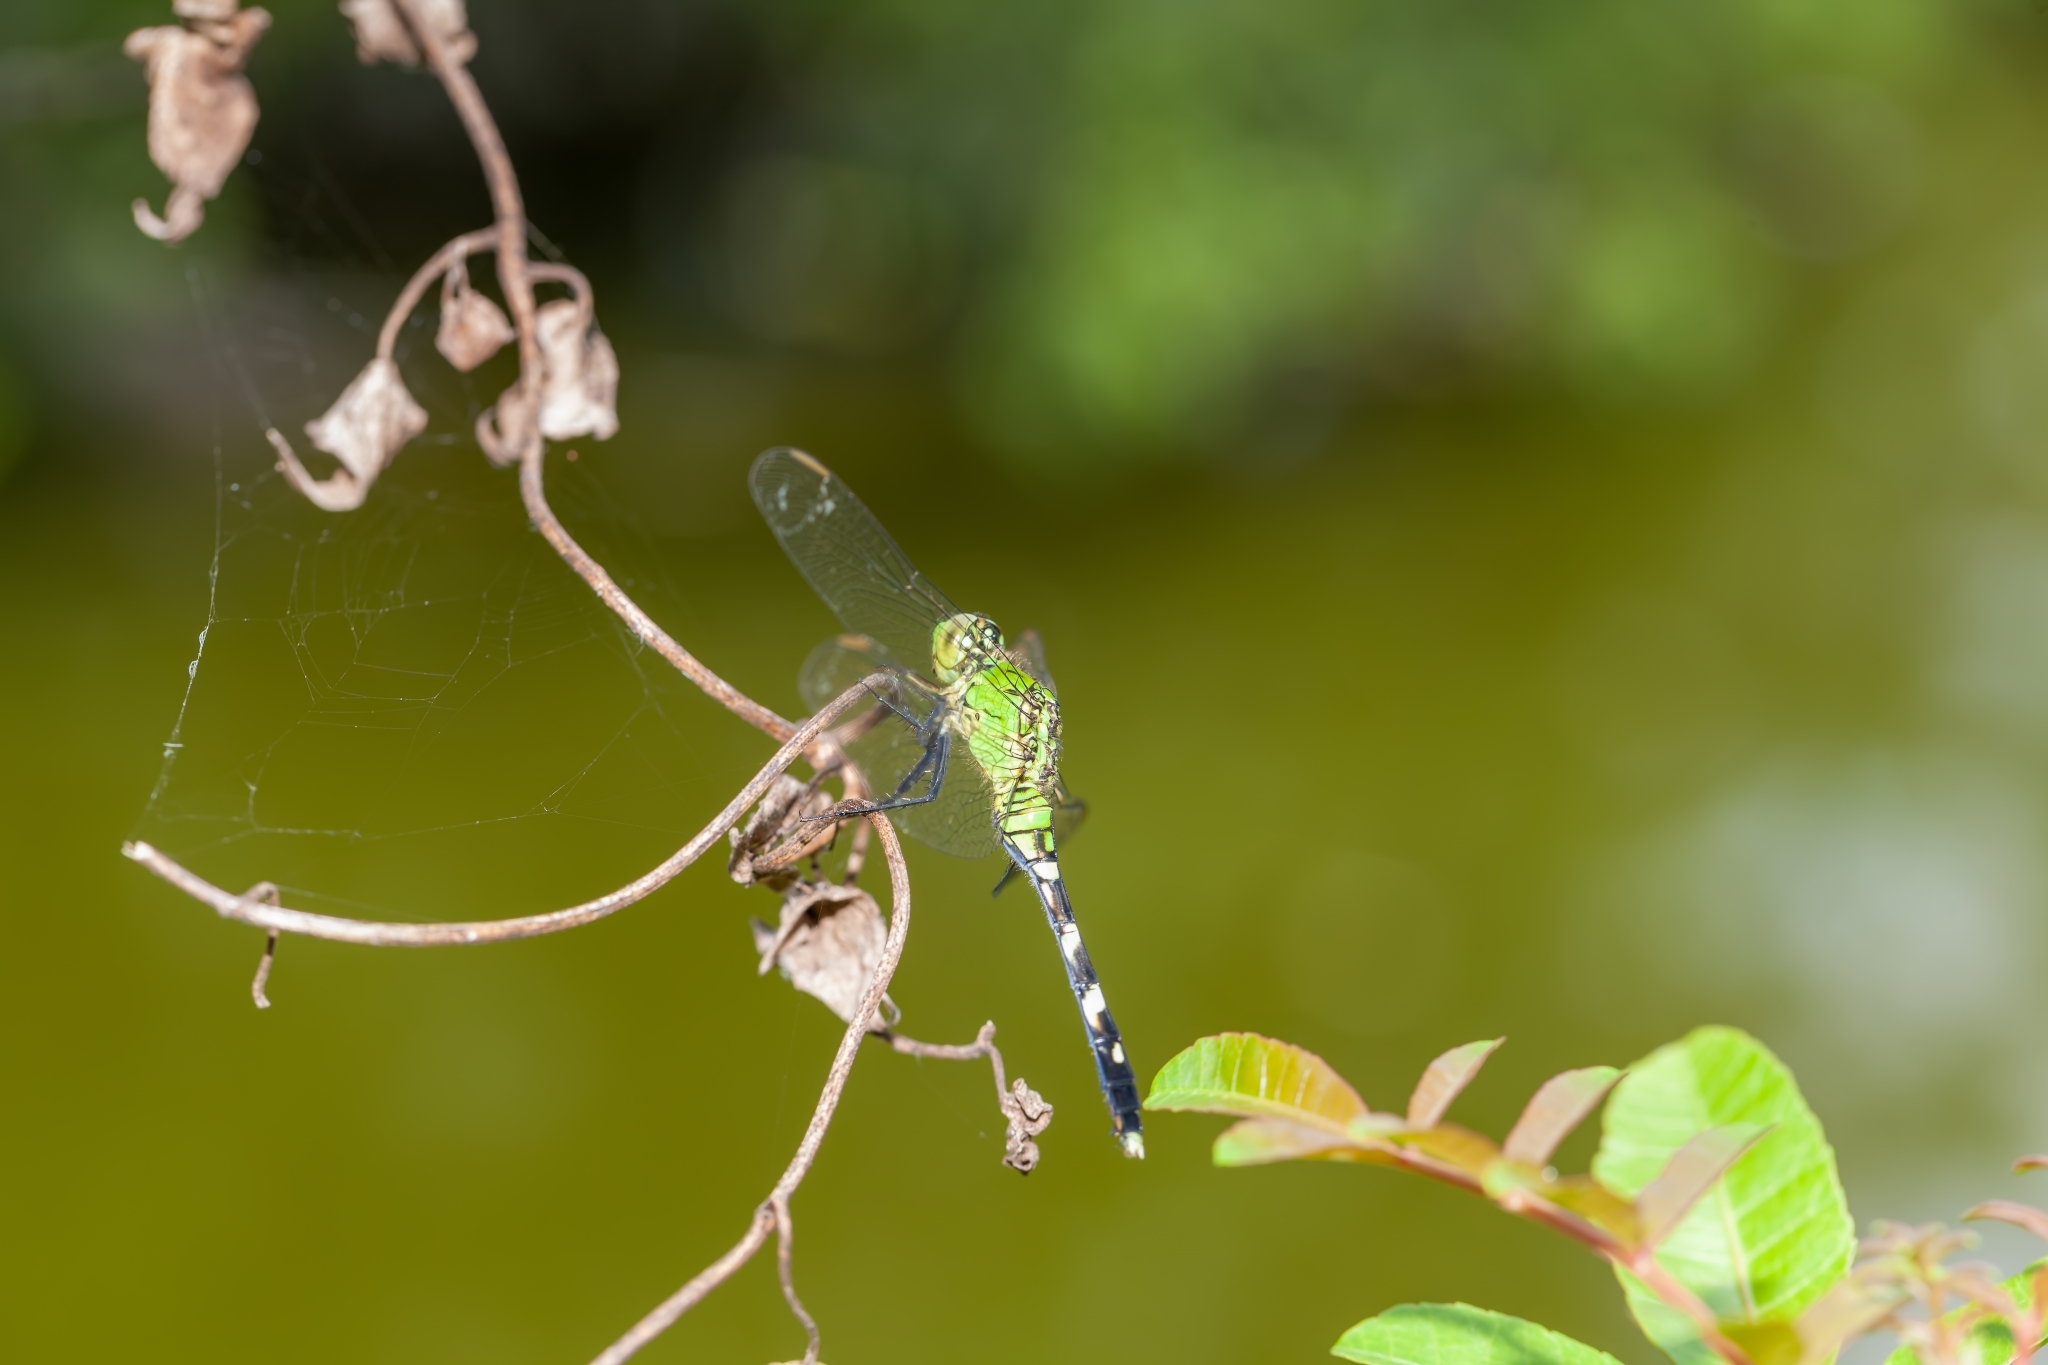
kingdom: Animalia
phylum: Arthropoda
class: Insecta
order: Odonata
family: Libellulidae
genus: Erythemis
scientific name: Erythemis simplicicollis
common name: Eastern pondhawk
